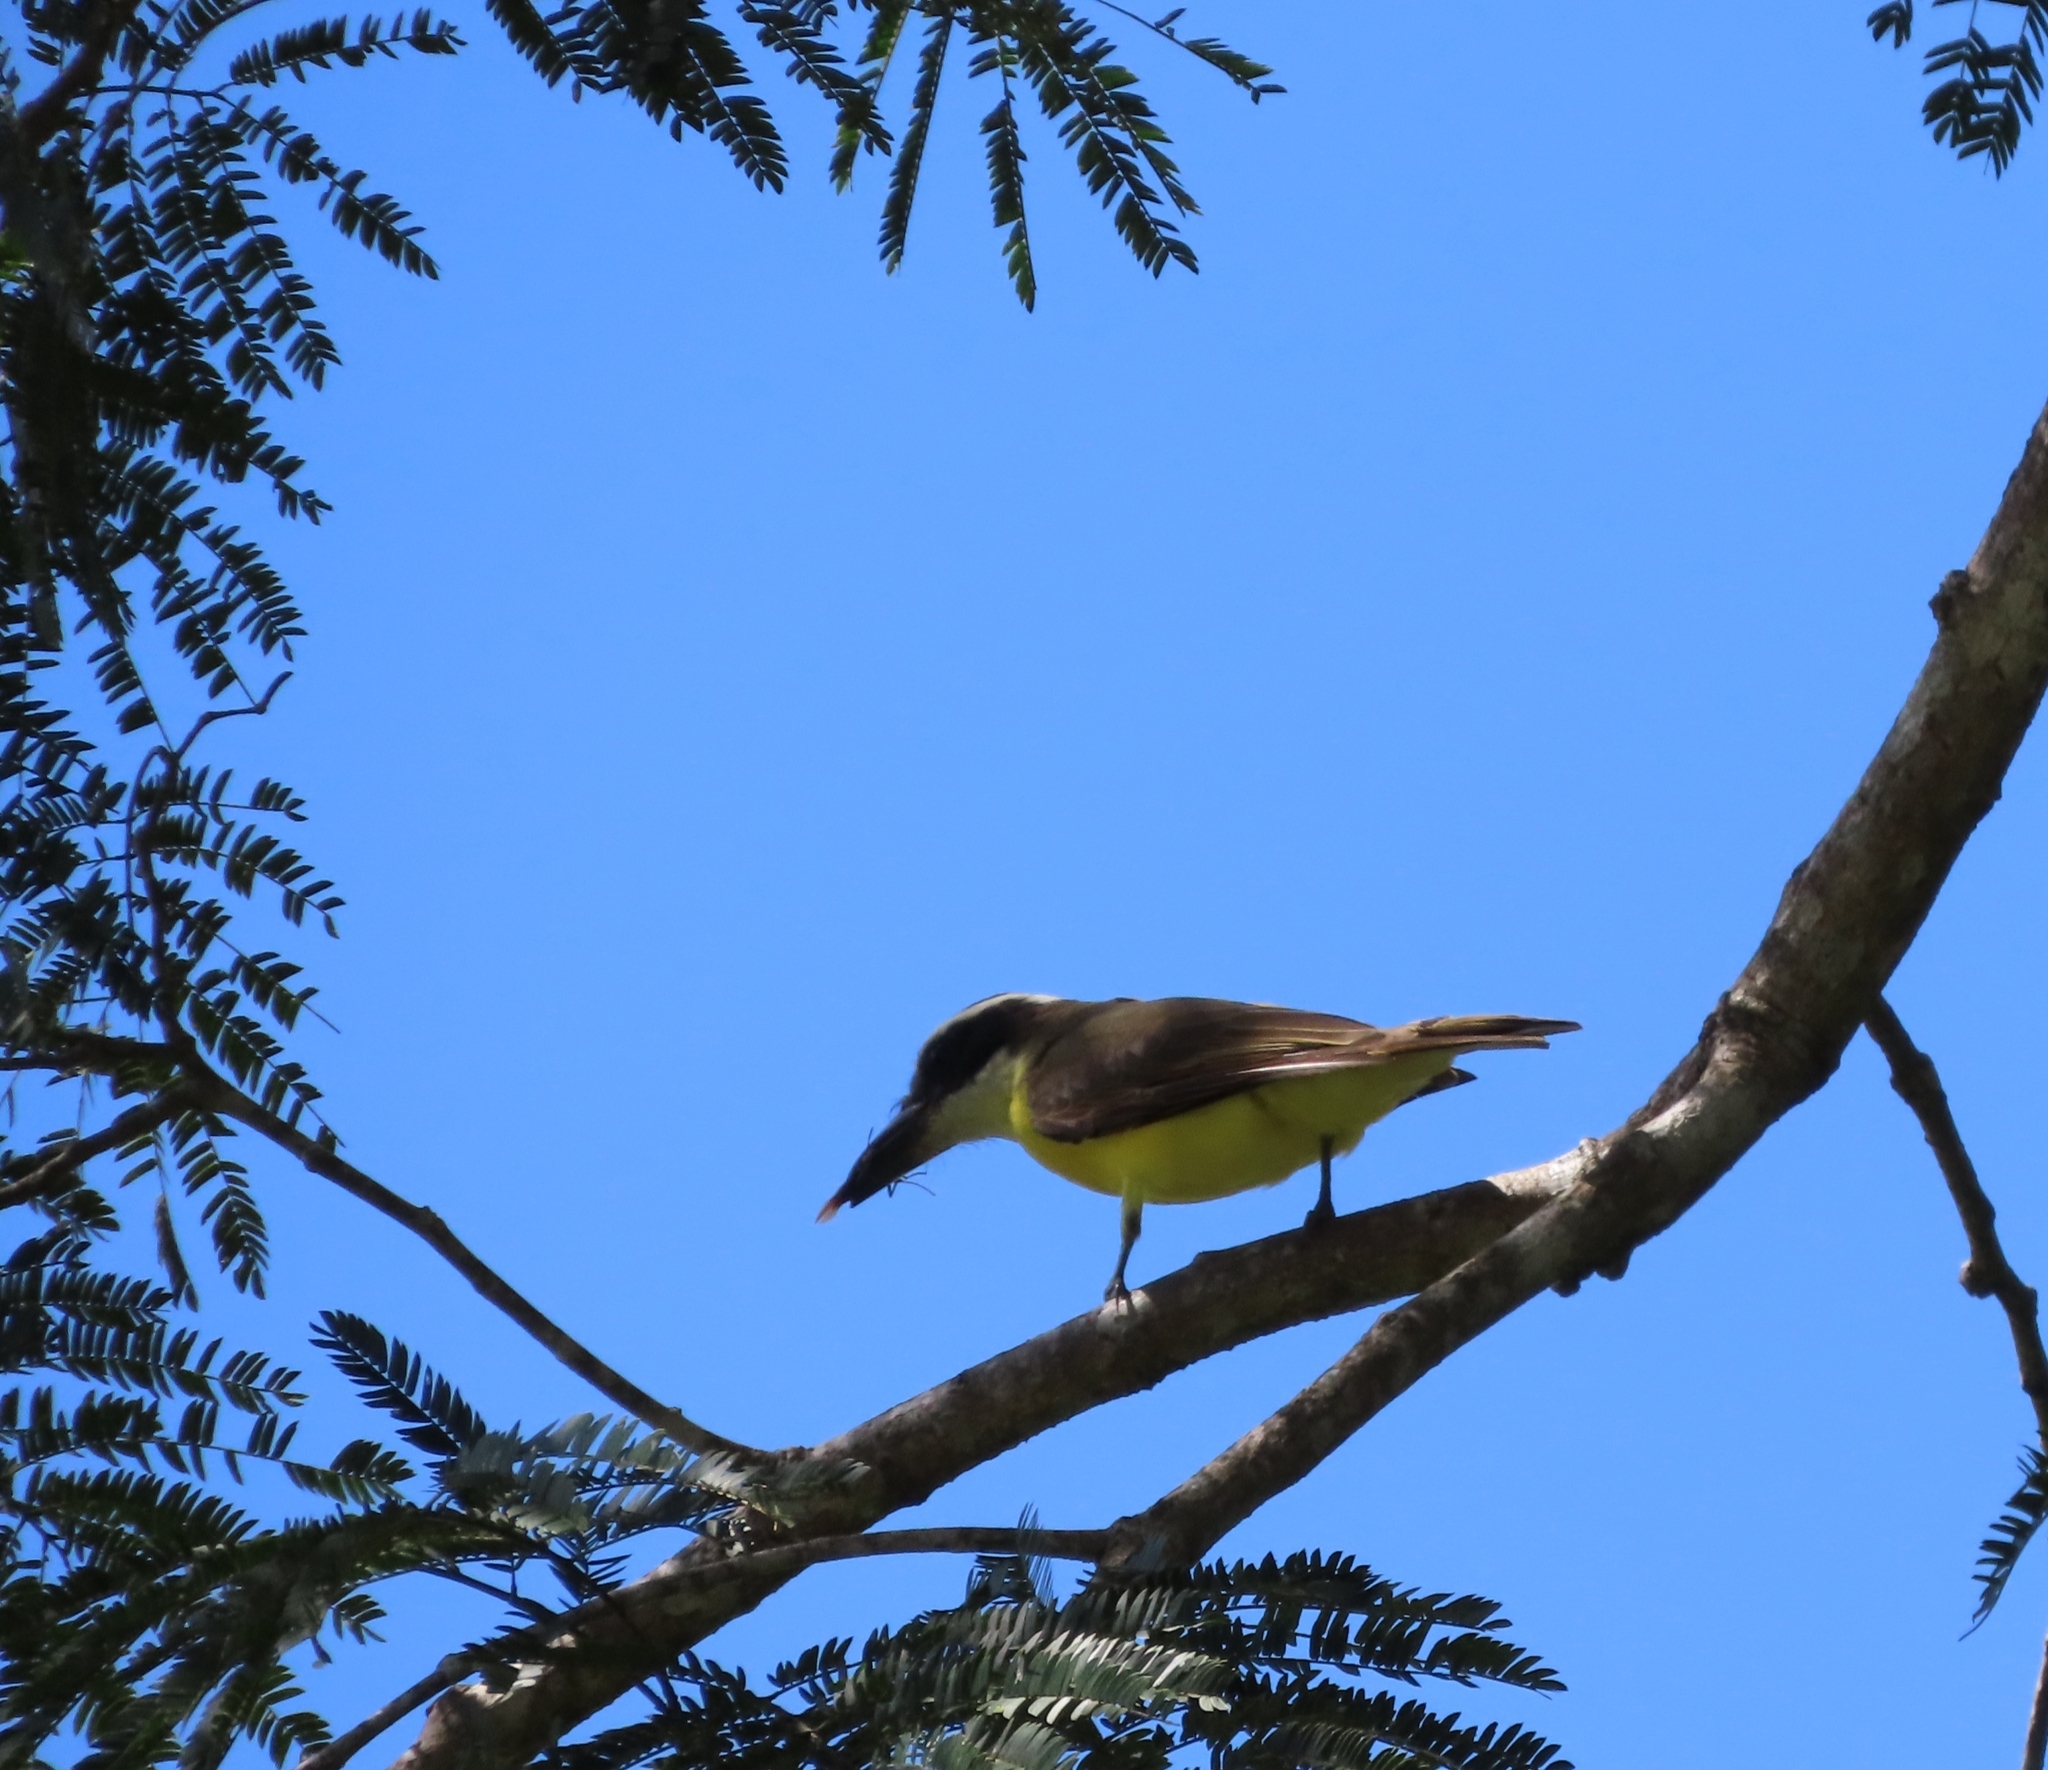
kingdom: Animalia
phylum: Chordata
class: Aves
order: Passeriformes
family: Tyrannidae
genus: Megarynchus
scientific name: Megarynchus pitangua
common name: Boat-billed flycatcher
